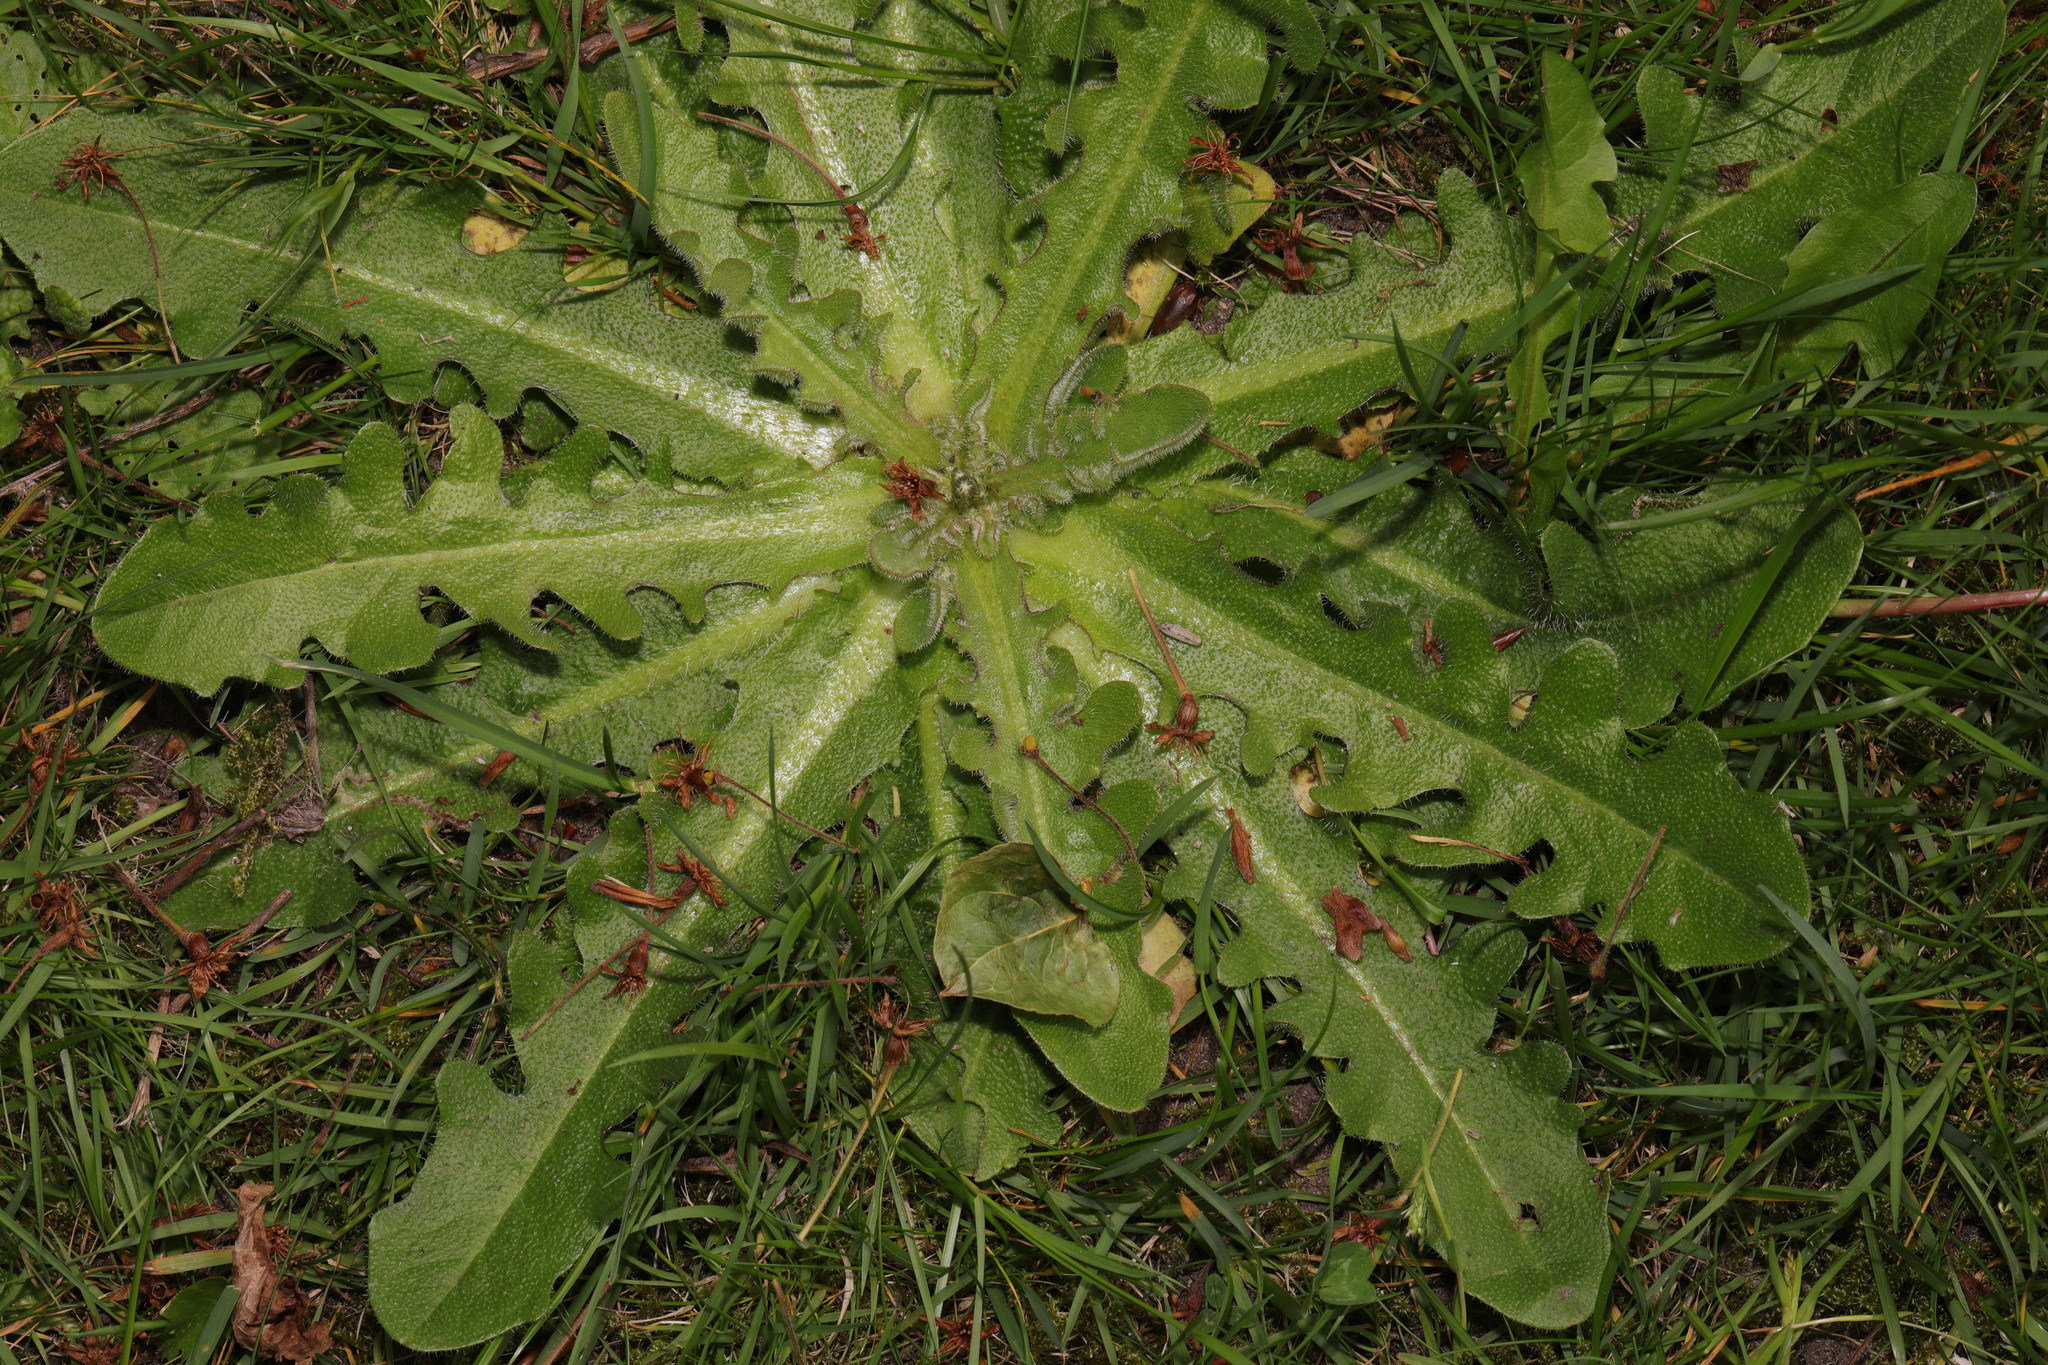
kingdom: Plantae
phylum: Tracheophyta
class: Magnoliopsida
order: Asterales
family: Asteraceae
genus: Hypochaeris
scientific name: Hypochaeris radicata
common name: Flatweed
